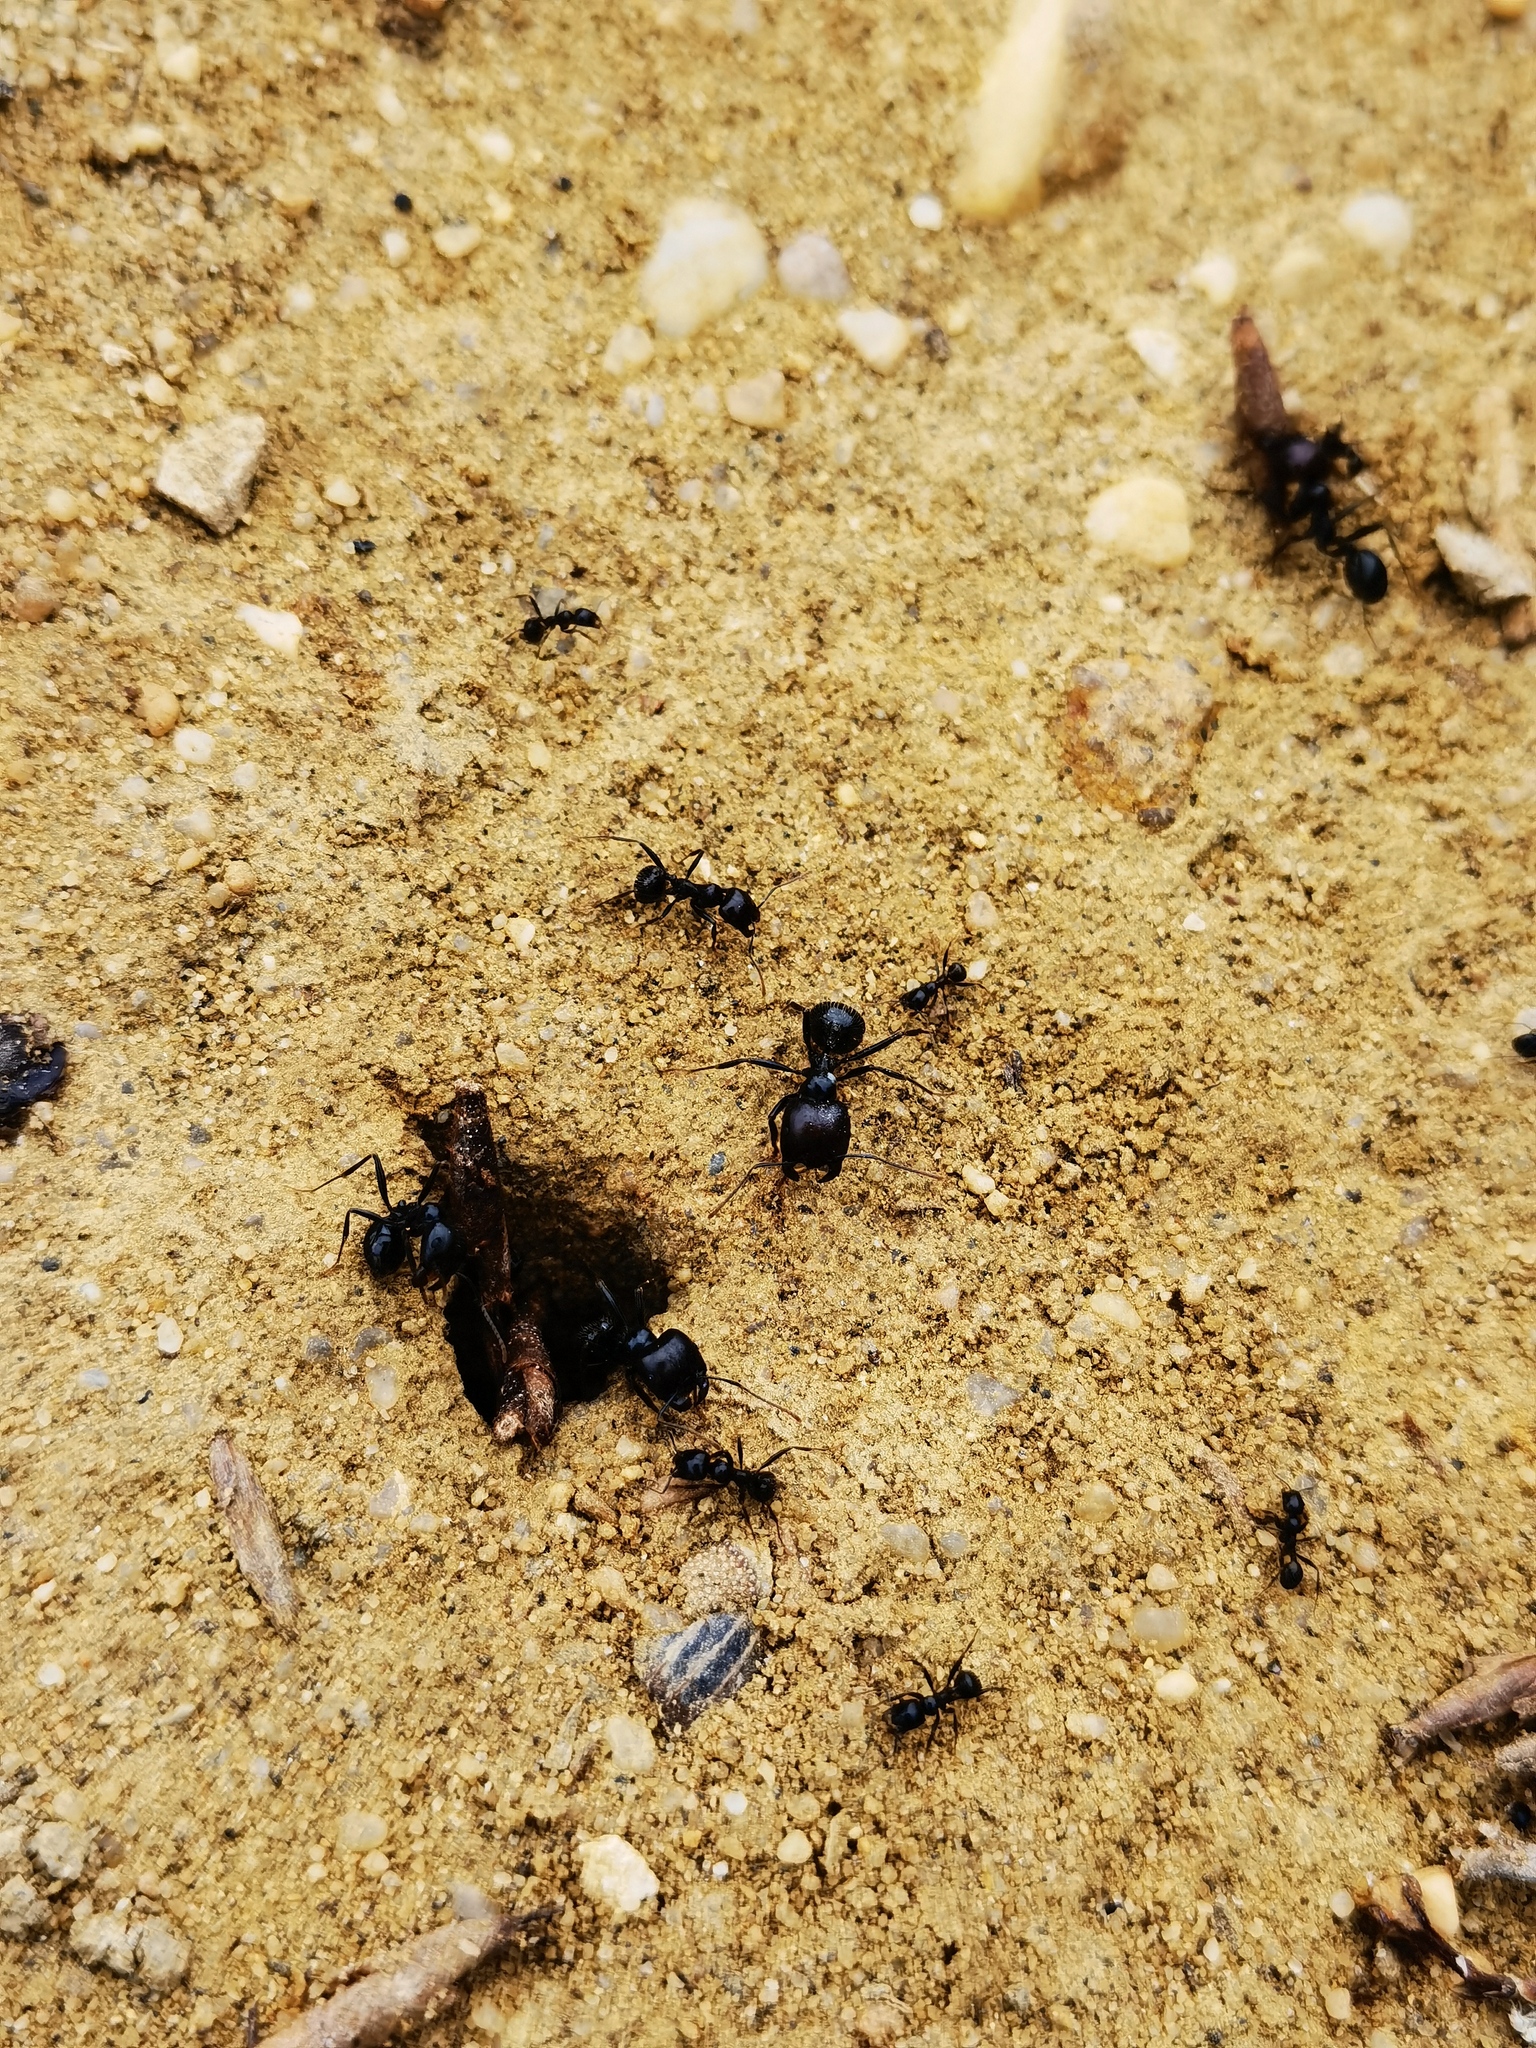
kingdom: Animalia
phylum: Arthropoda
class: Insecta
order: Hymenoptera
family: Formicidae
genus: Messor
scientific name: Messor barbarus
